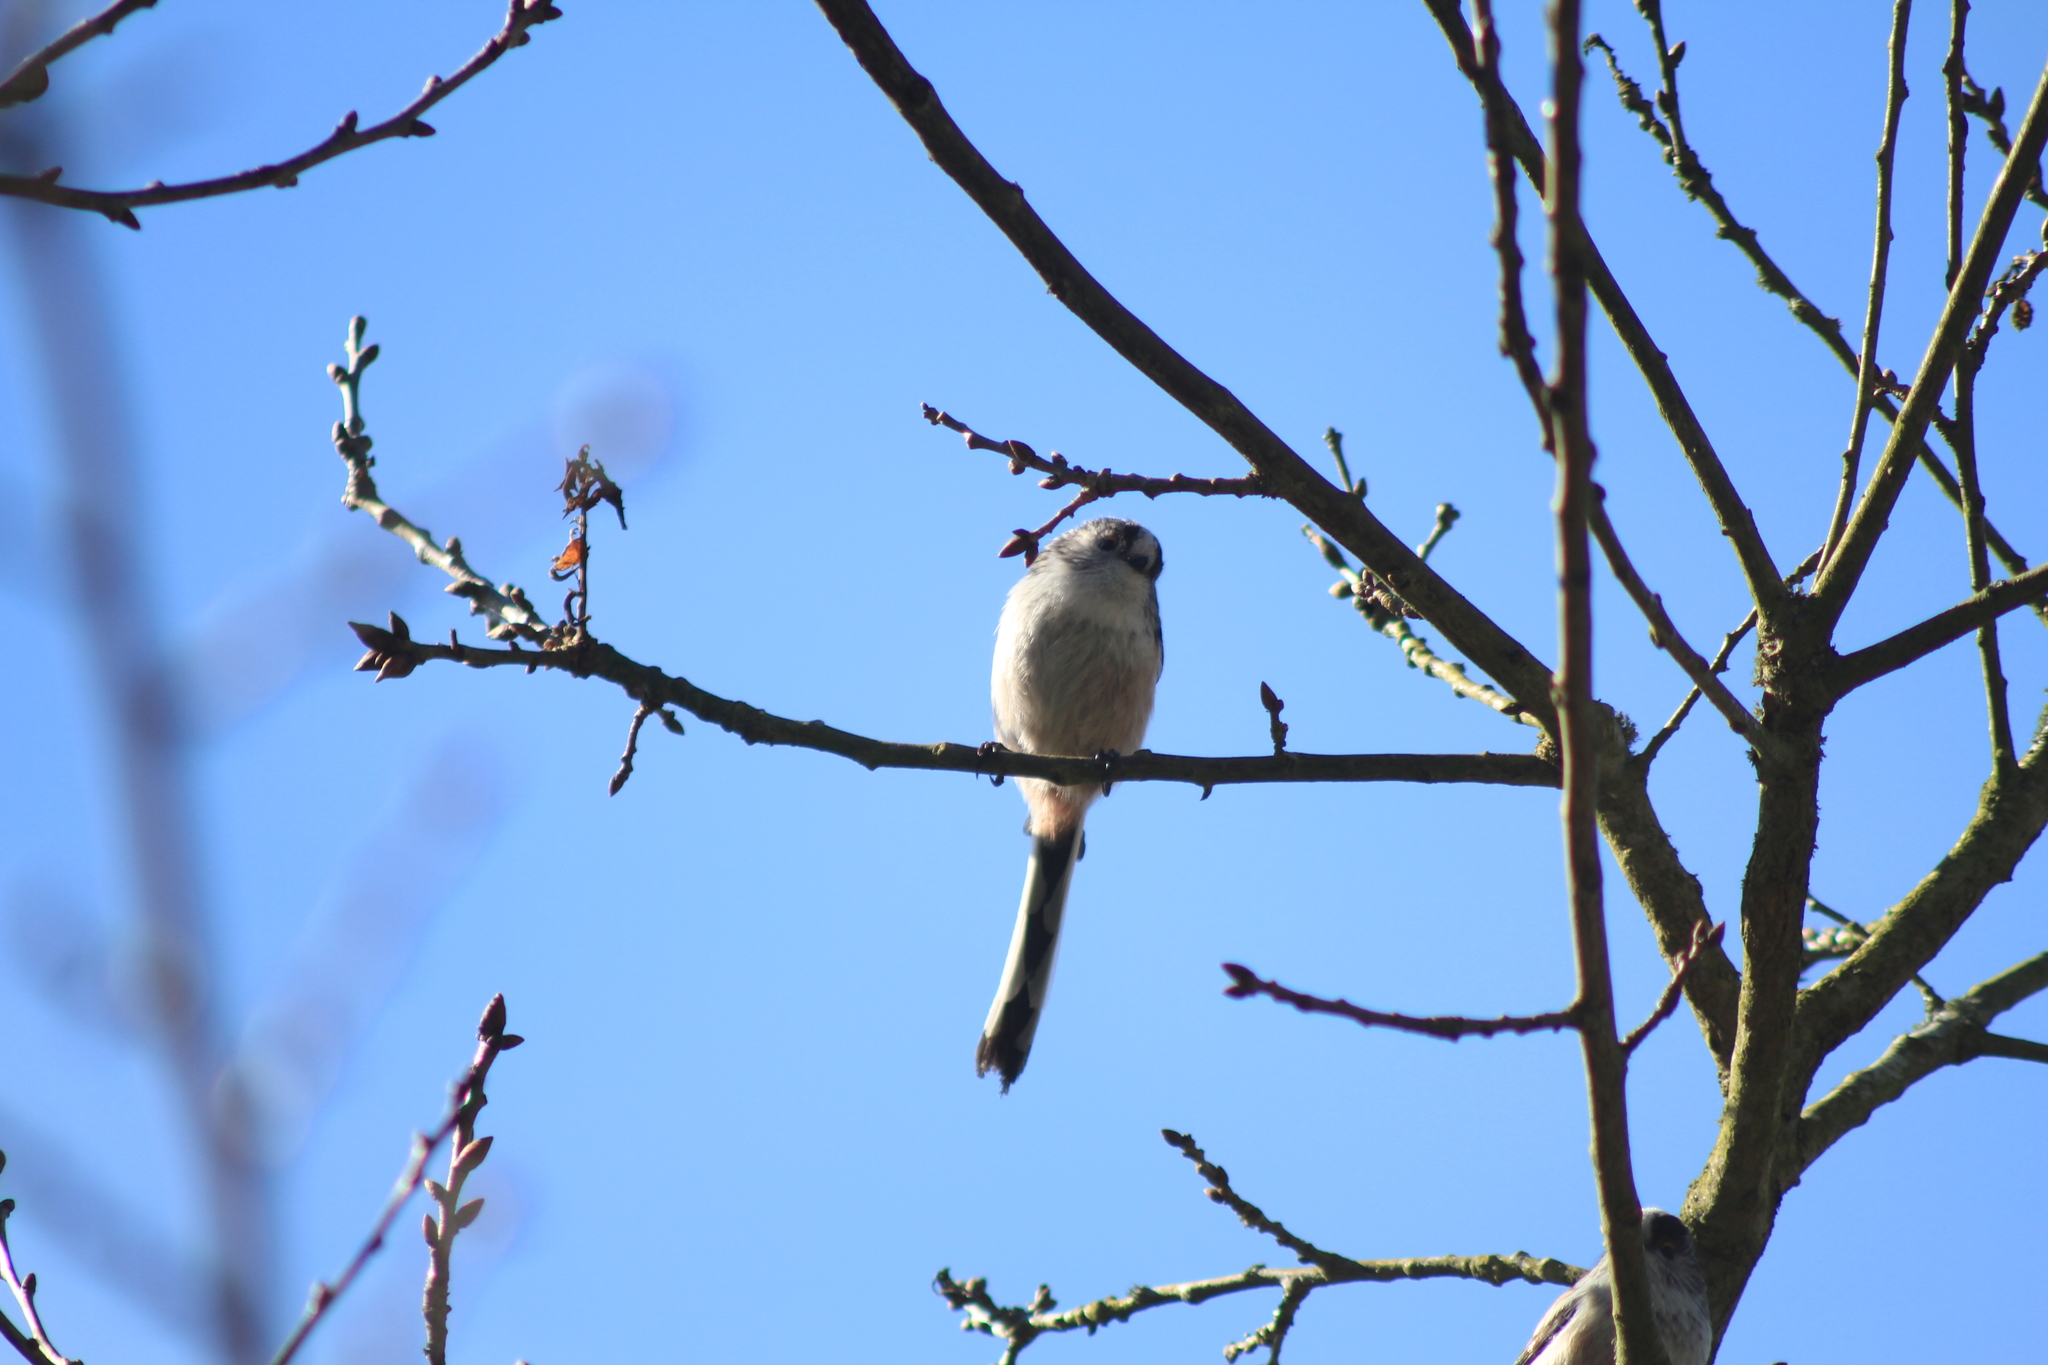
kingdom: Animalia
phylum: Chordata
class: Aves
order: Passeriformes
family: Aegithalidae
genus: Aegithalos
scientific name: Aegithalos caudatus
